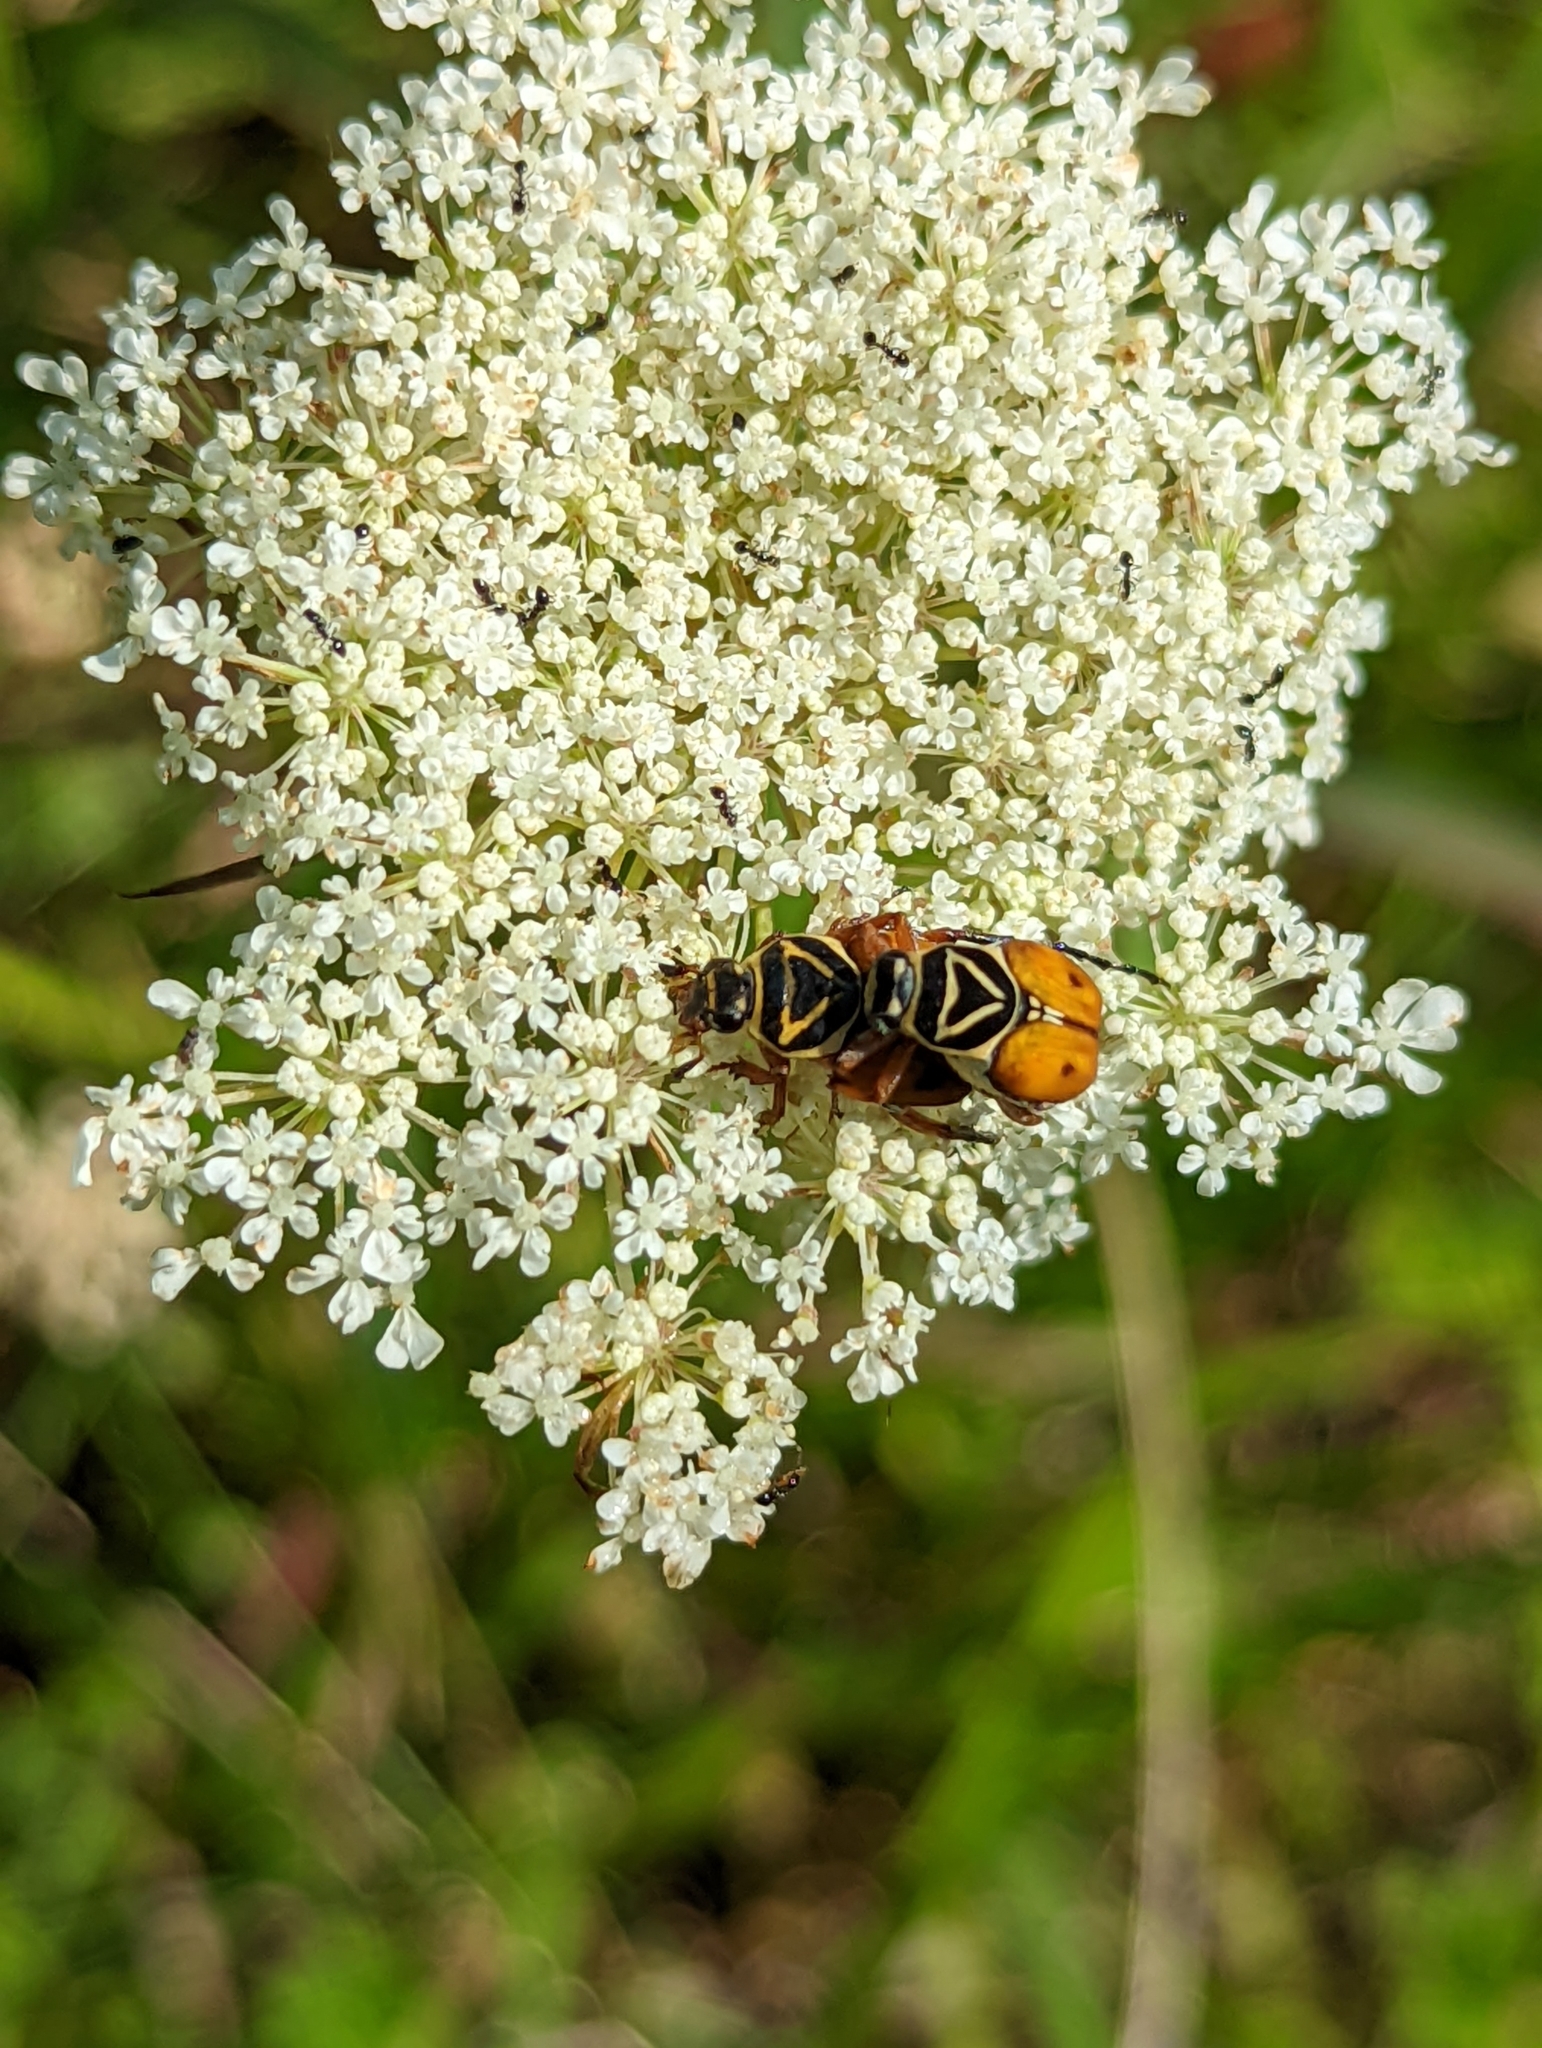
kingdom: Animalia
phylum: Arthropoda
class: Insecta
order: Coleoptera
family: Scarabaeidae
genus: Trigonopeltastes
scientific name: Trigonopeltastes delta
